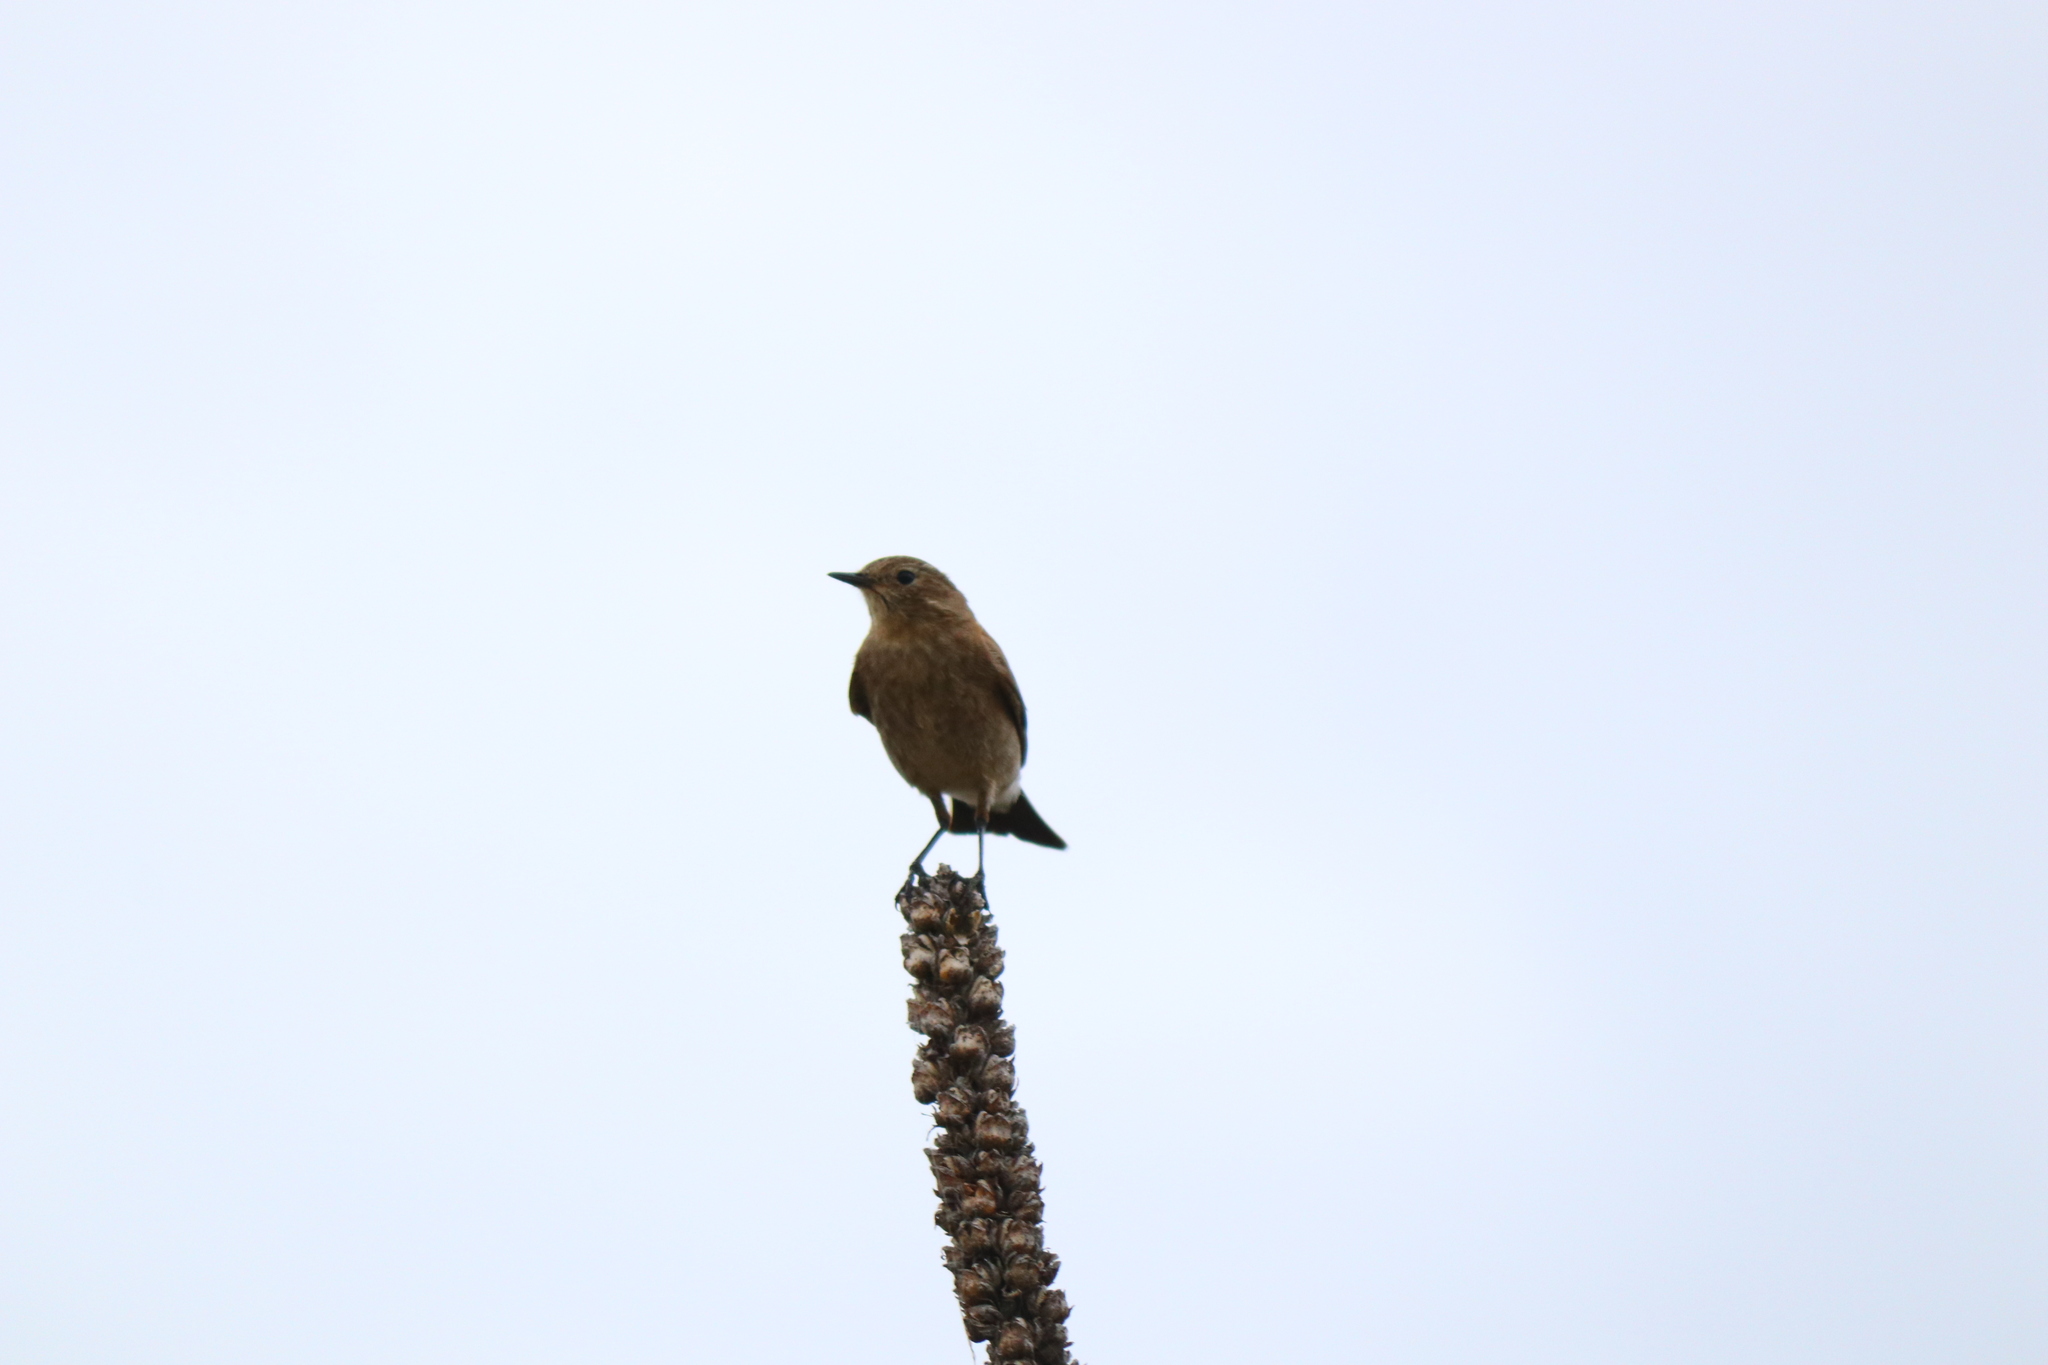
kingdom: Animalia
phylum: Chordata
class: Aves
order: Passeriformes
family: Tyrannidae
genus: Lessonia
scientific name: Lessonia rufa
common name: Austral negrito
